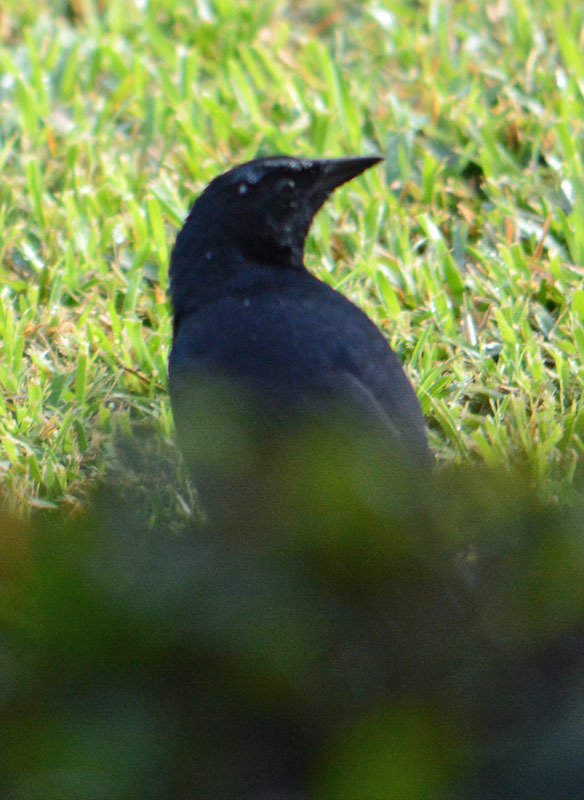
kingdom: Animalia
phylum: Chordata
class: Aves
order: Passeriformes
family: Icteridae
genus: Dives
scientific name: Dives dives
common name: Melodious blackbird
